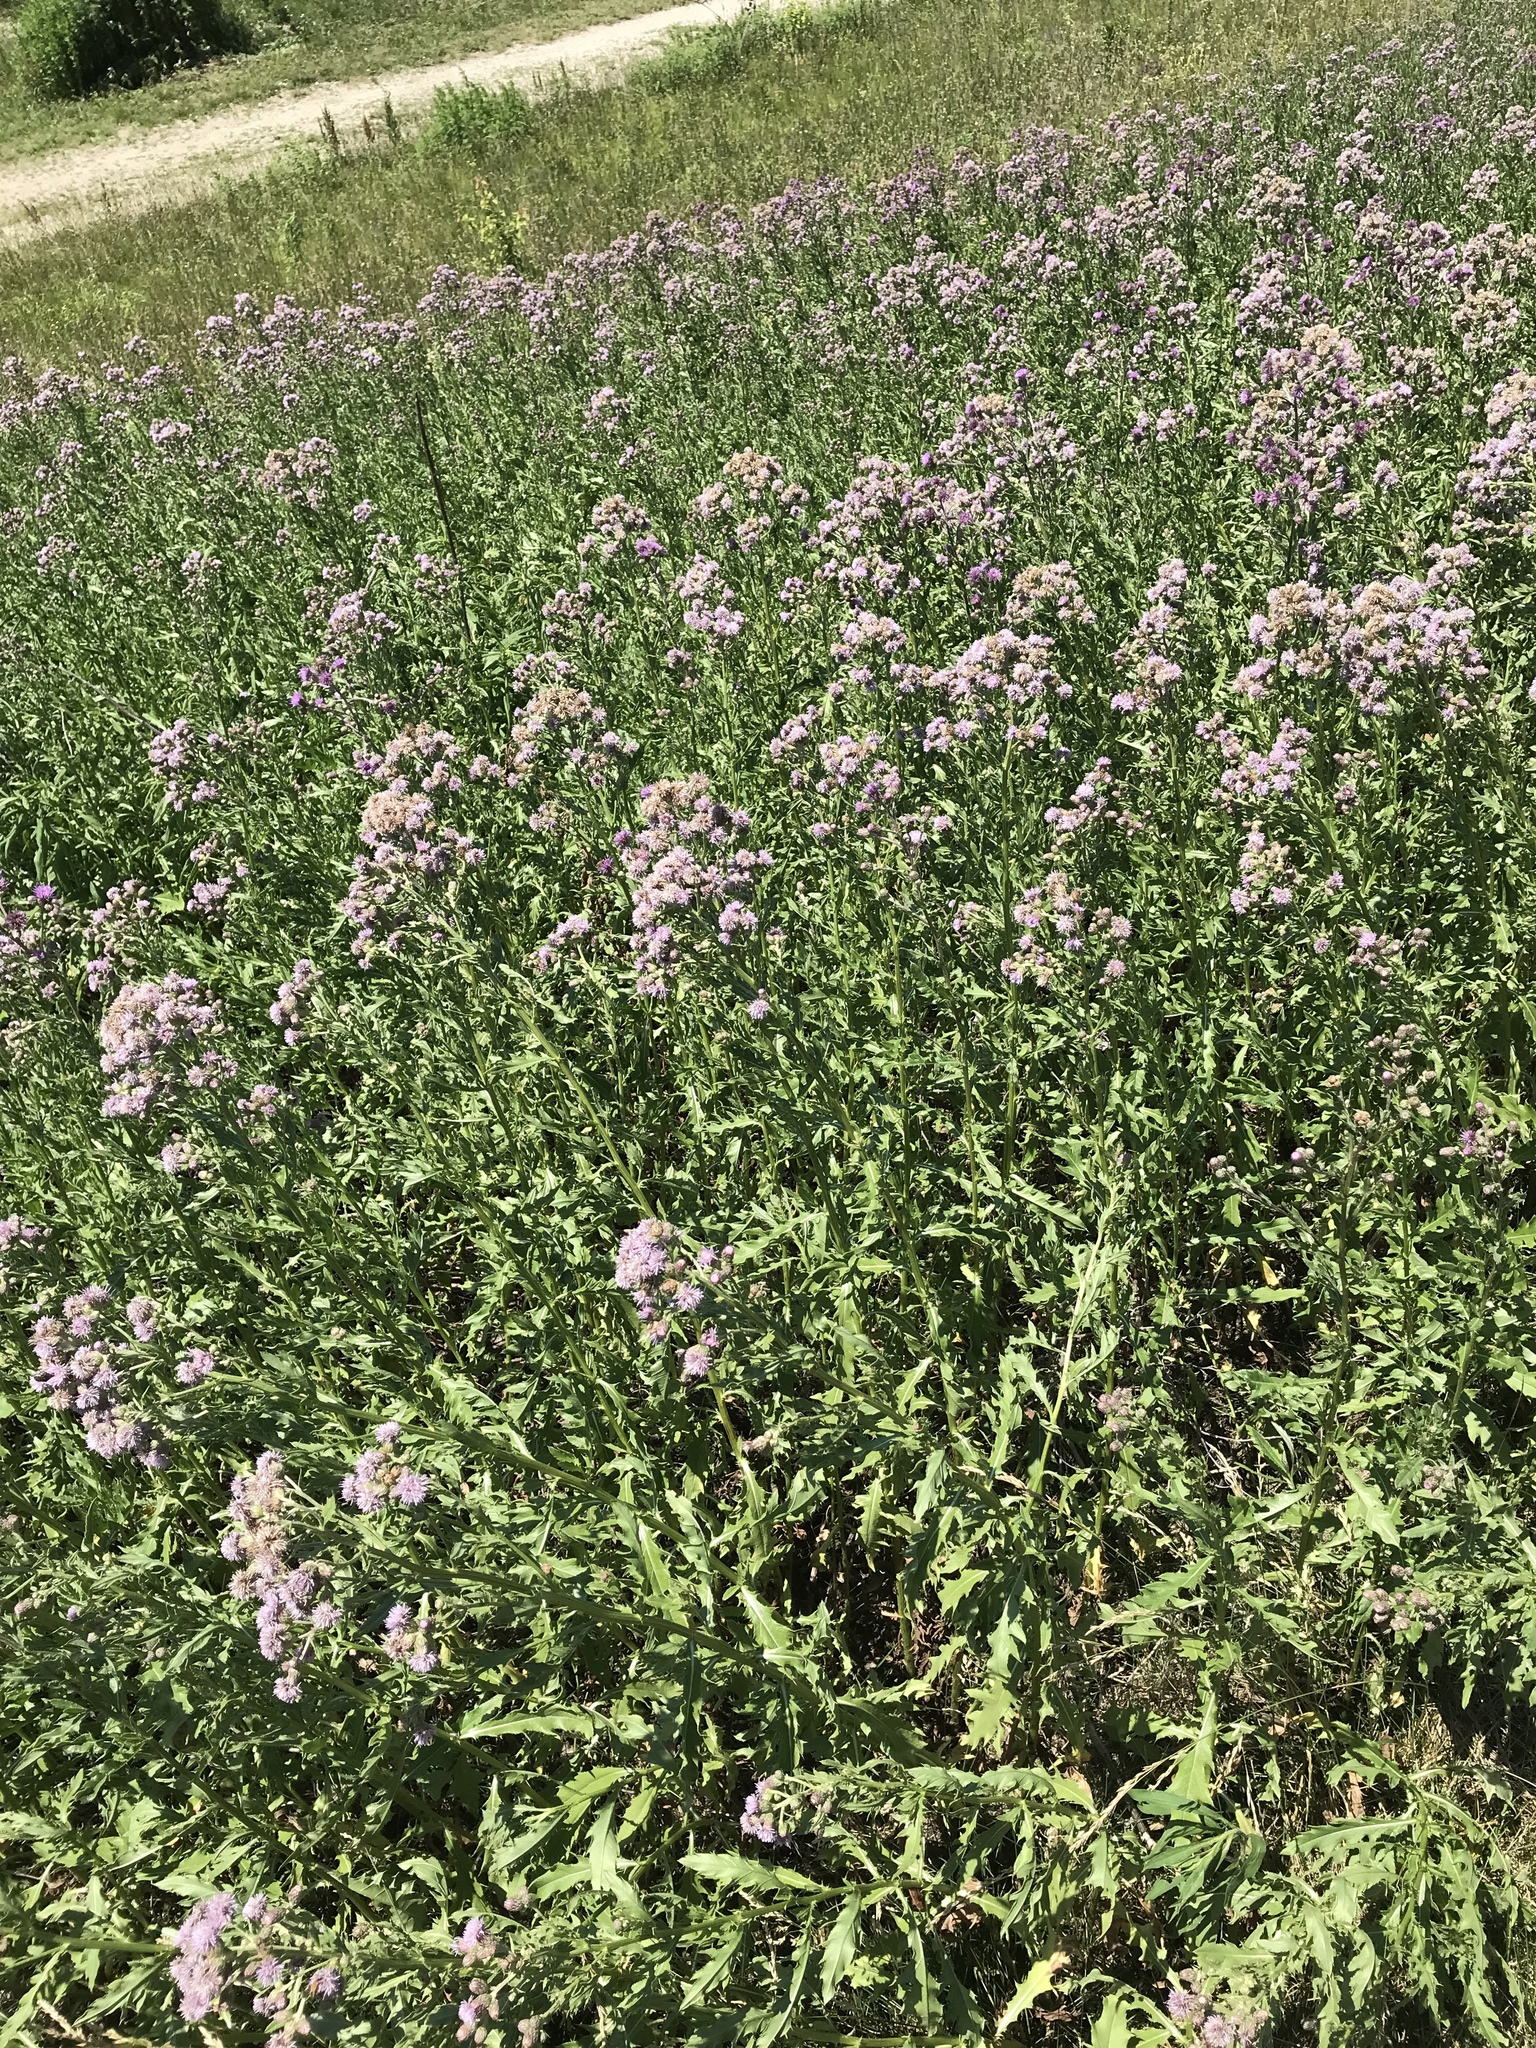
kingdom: Plantae
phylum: Tracheophyta
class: Magnoliopsida
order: Asterales
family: Asteraceae
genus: Cirsium
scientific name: Cirsium arvense
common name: Creeping thistle
